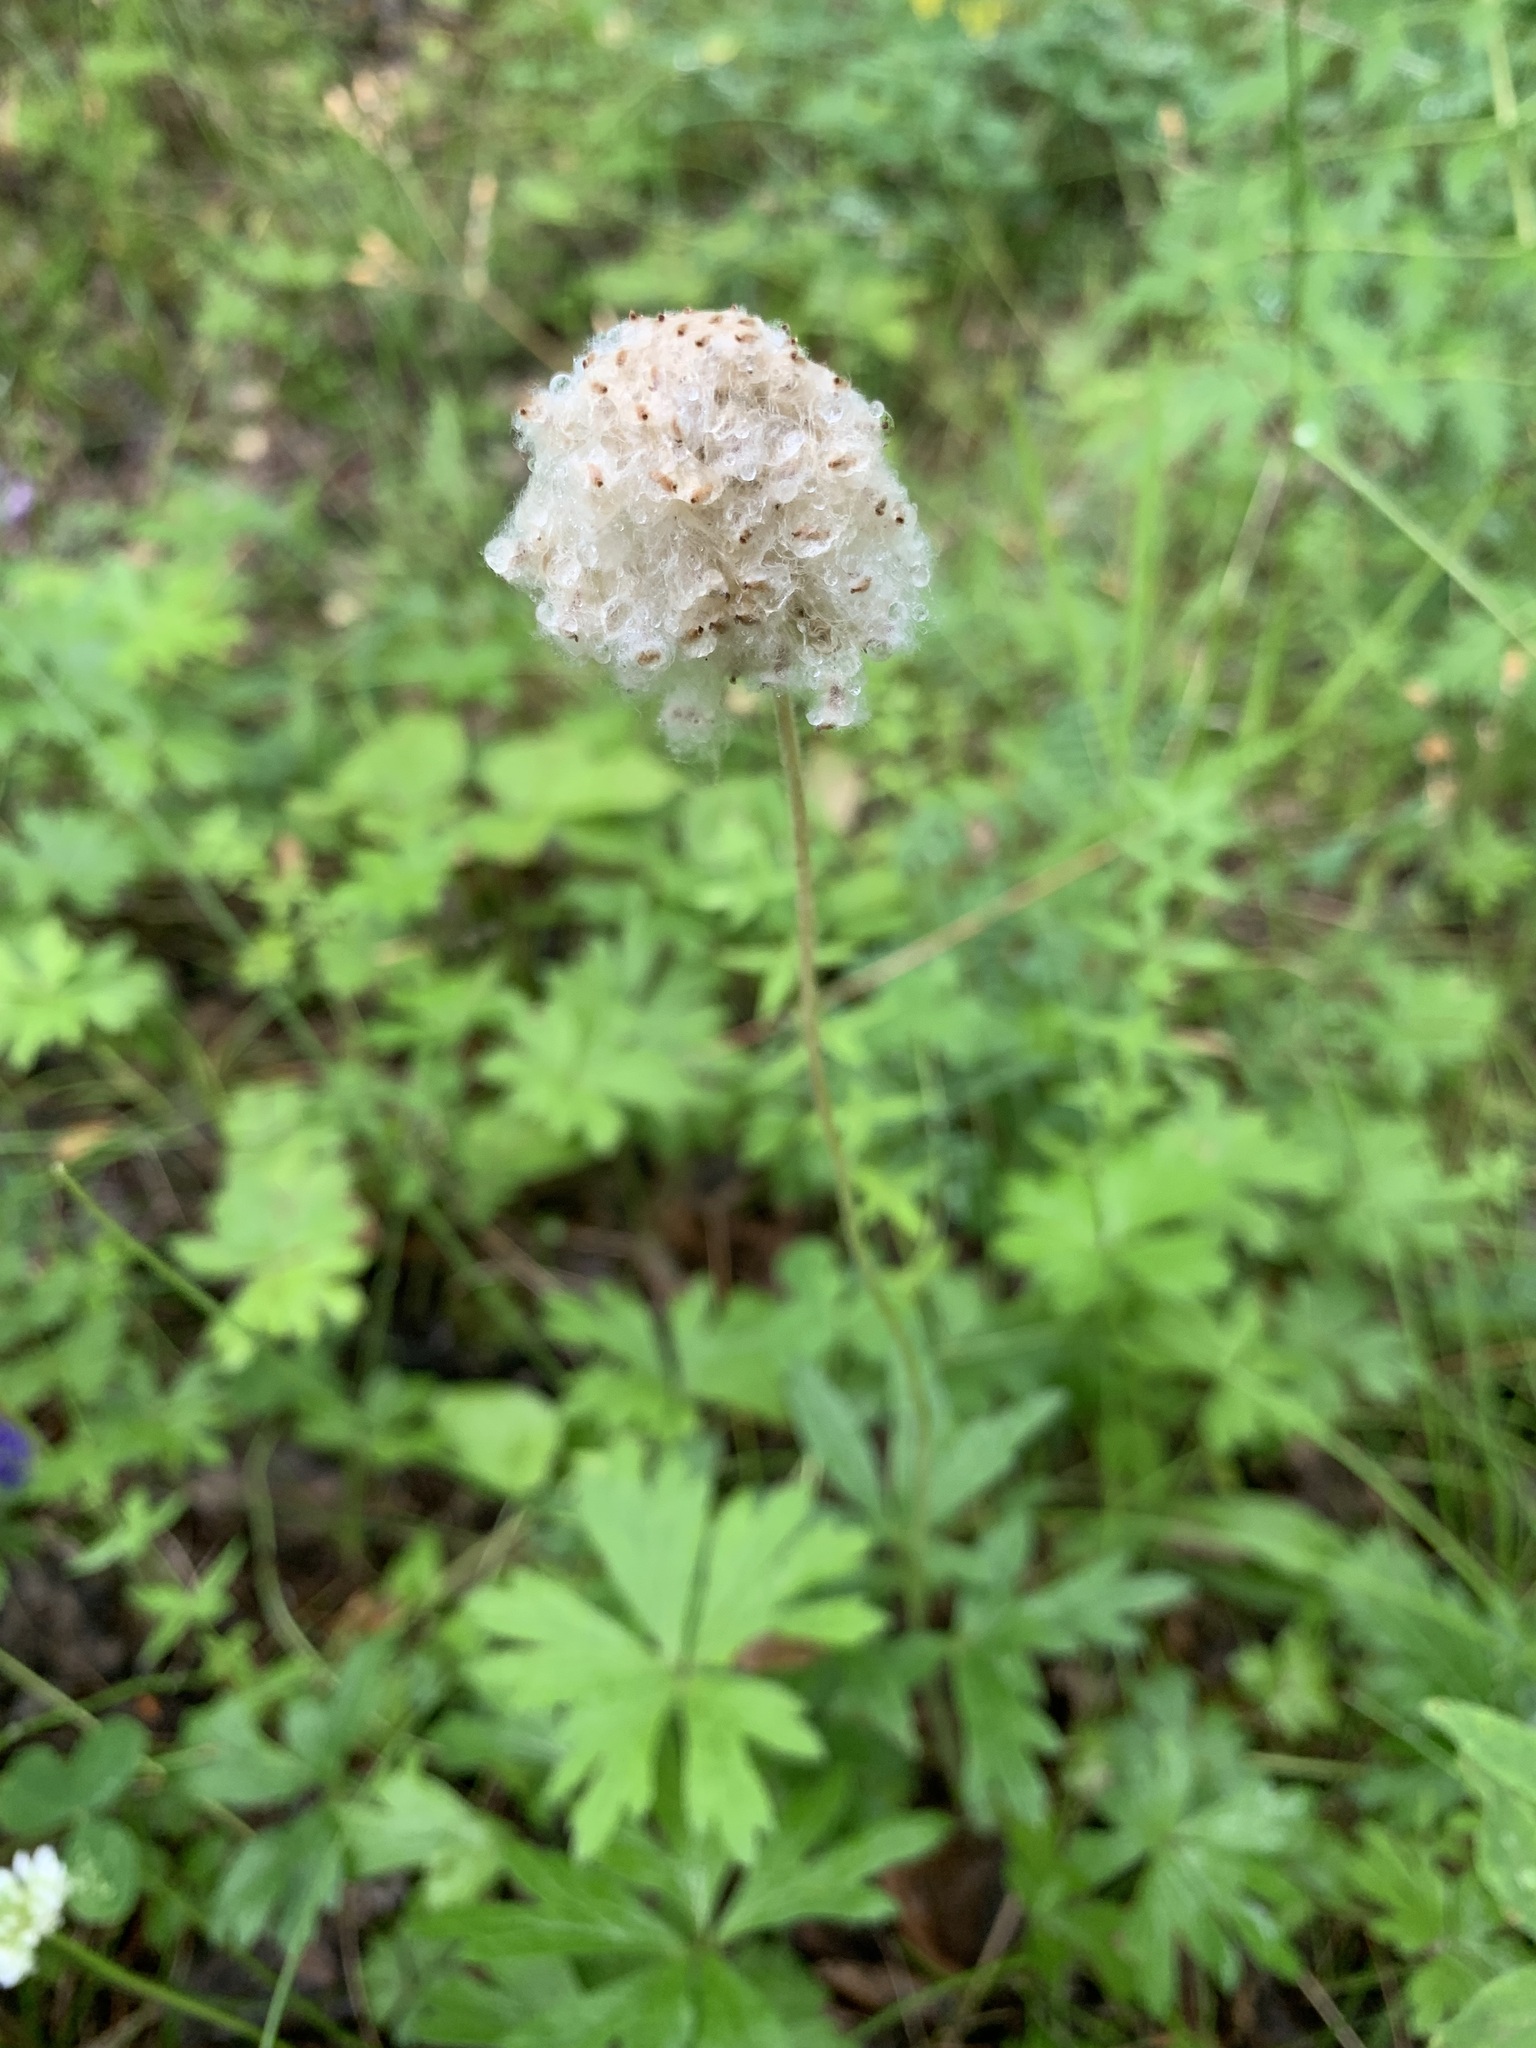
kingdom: Plantae
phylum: Tracheophyta
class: Magnoliopsida
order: Ranunculales
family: Ranunculaceae
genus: Anemone
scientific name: Anemone sylvestris
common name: Snowdrop anemone
